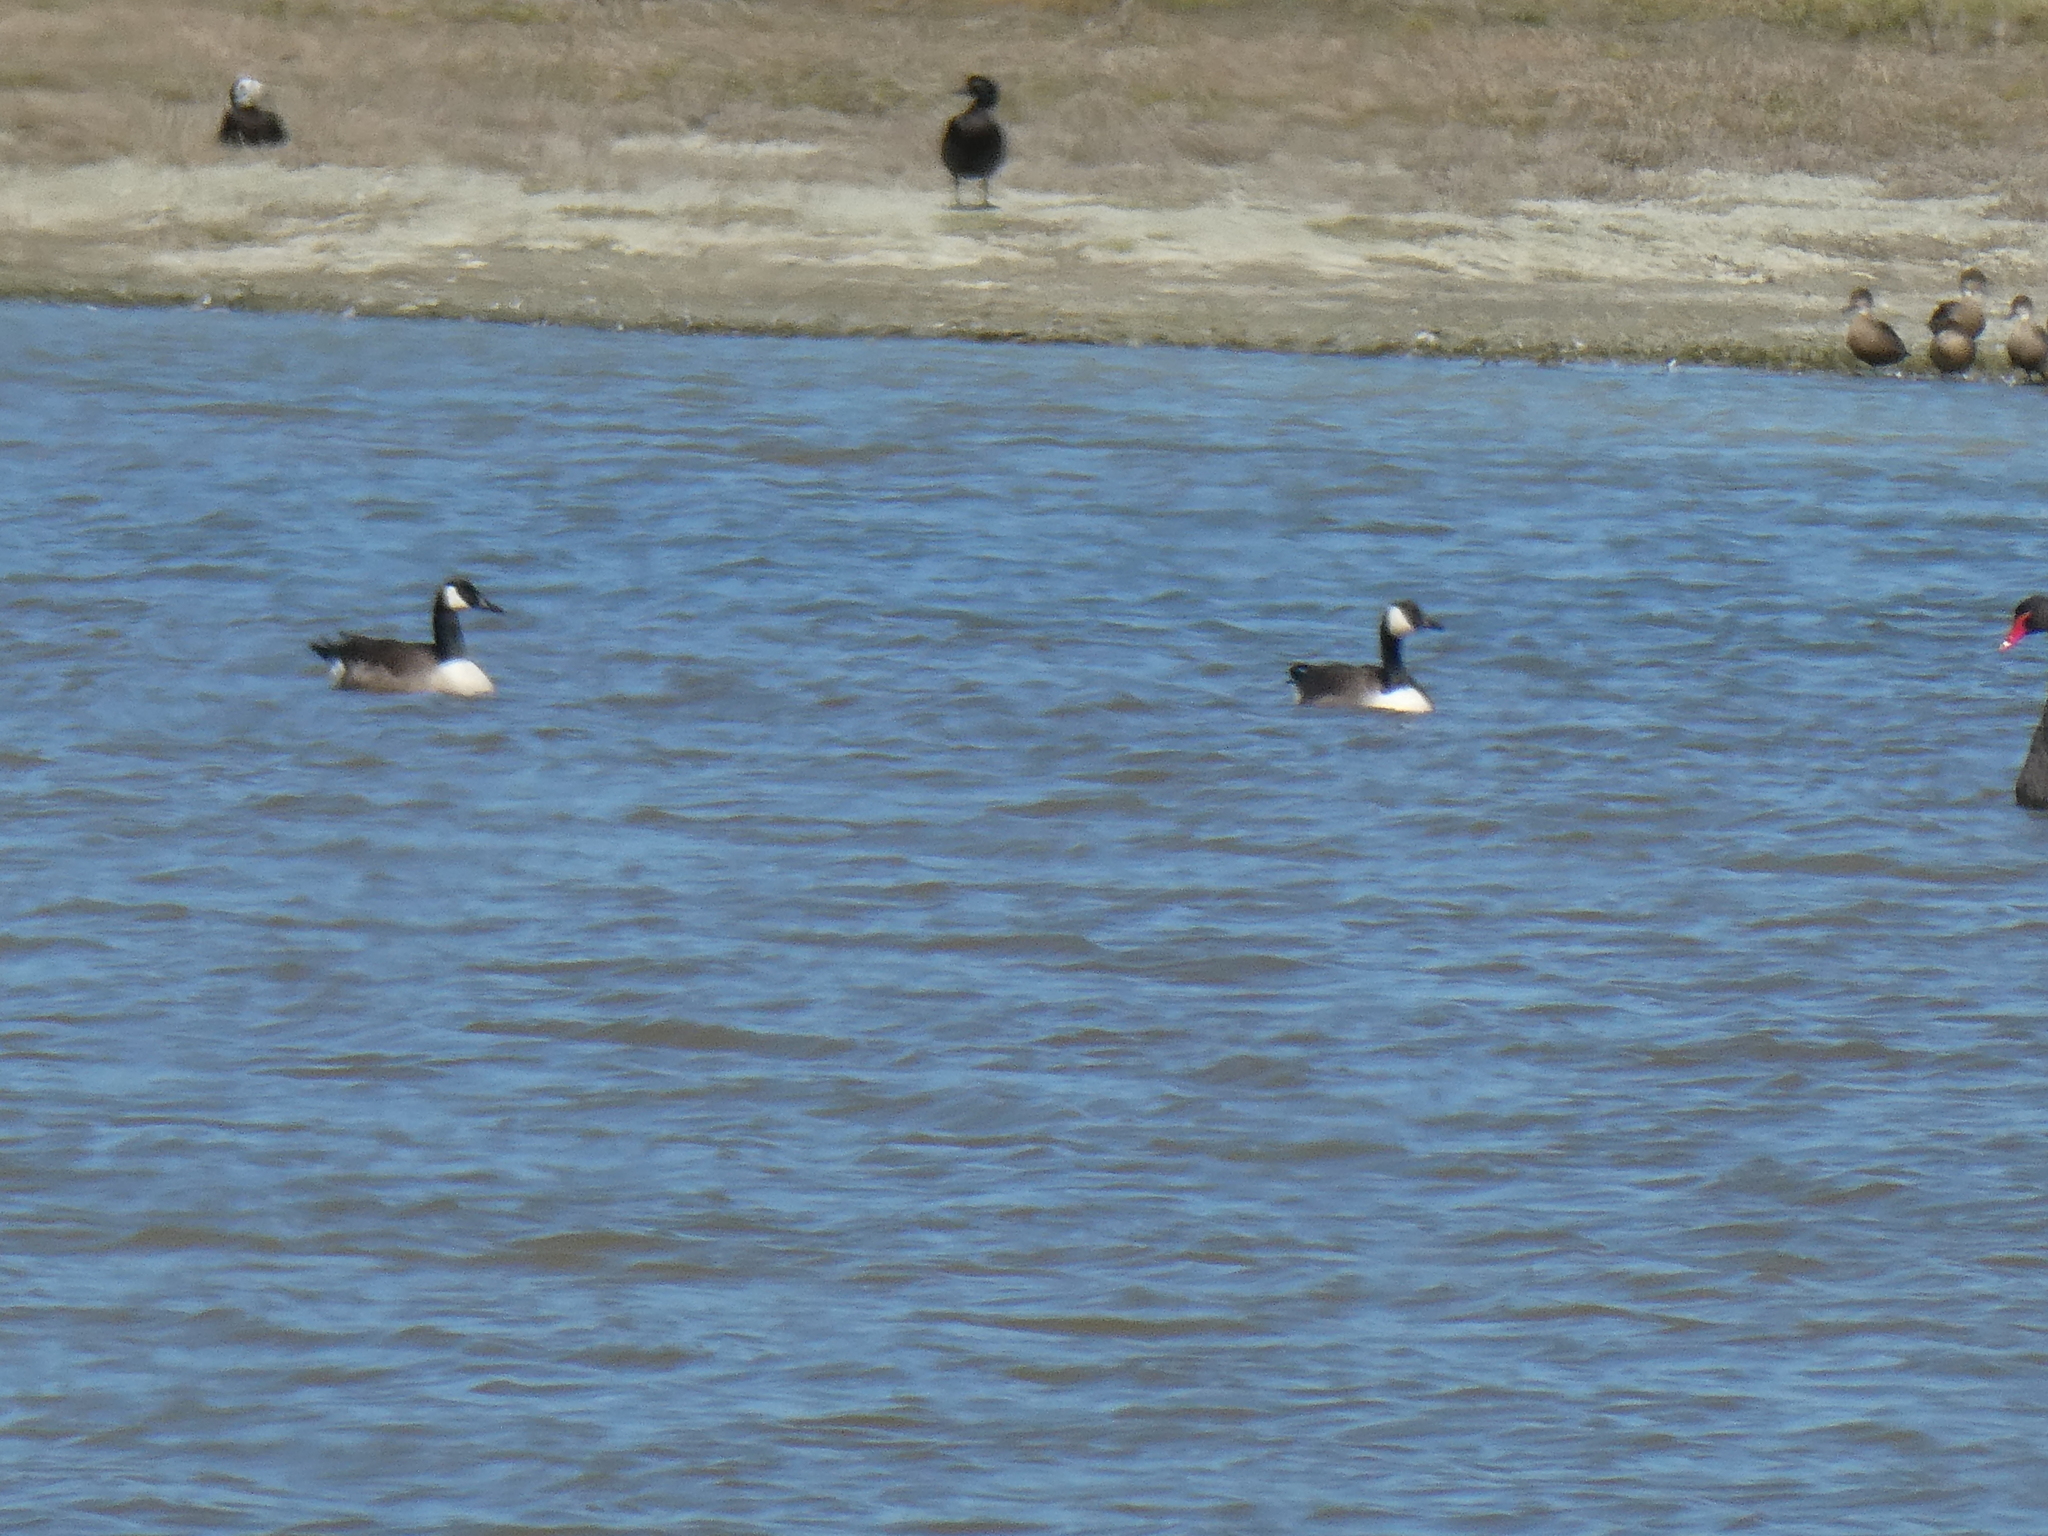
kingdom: Animalia
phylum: Chordata
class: Aves
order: Anseriformes
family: Anatidae
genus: Branta
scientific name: Branta canadensis
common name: Canada goose
